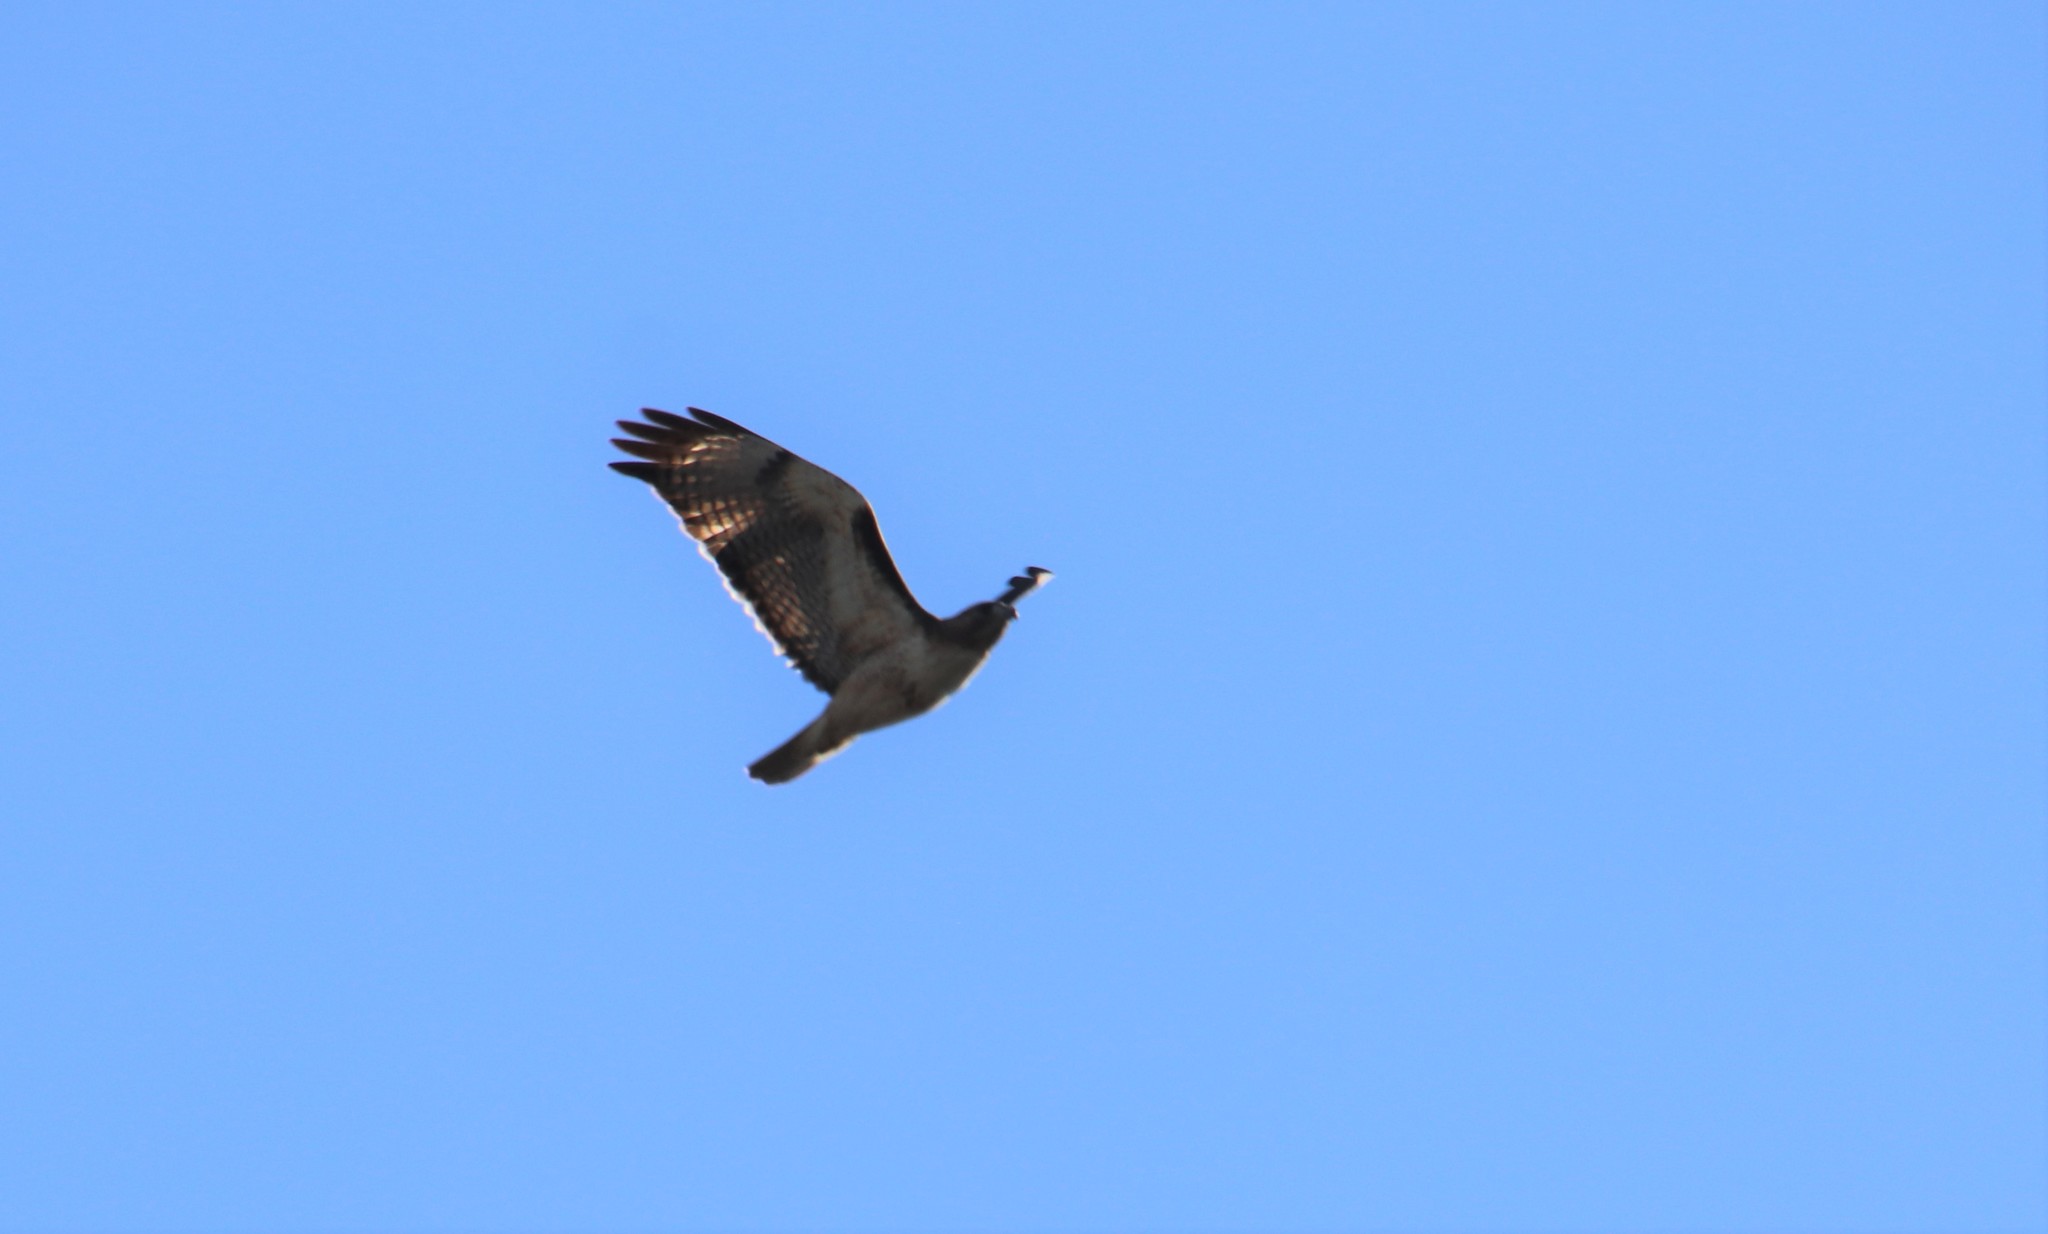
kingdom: Animalia
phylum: Chordata
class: Aves
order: Accipitriformes
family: Accipitridae
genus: Buteo
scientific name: Buteo jamaicensis
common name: Red-tailed hawk
